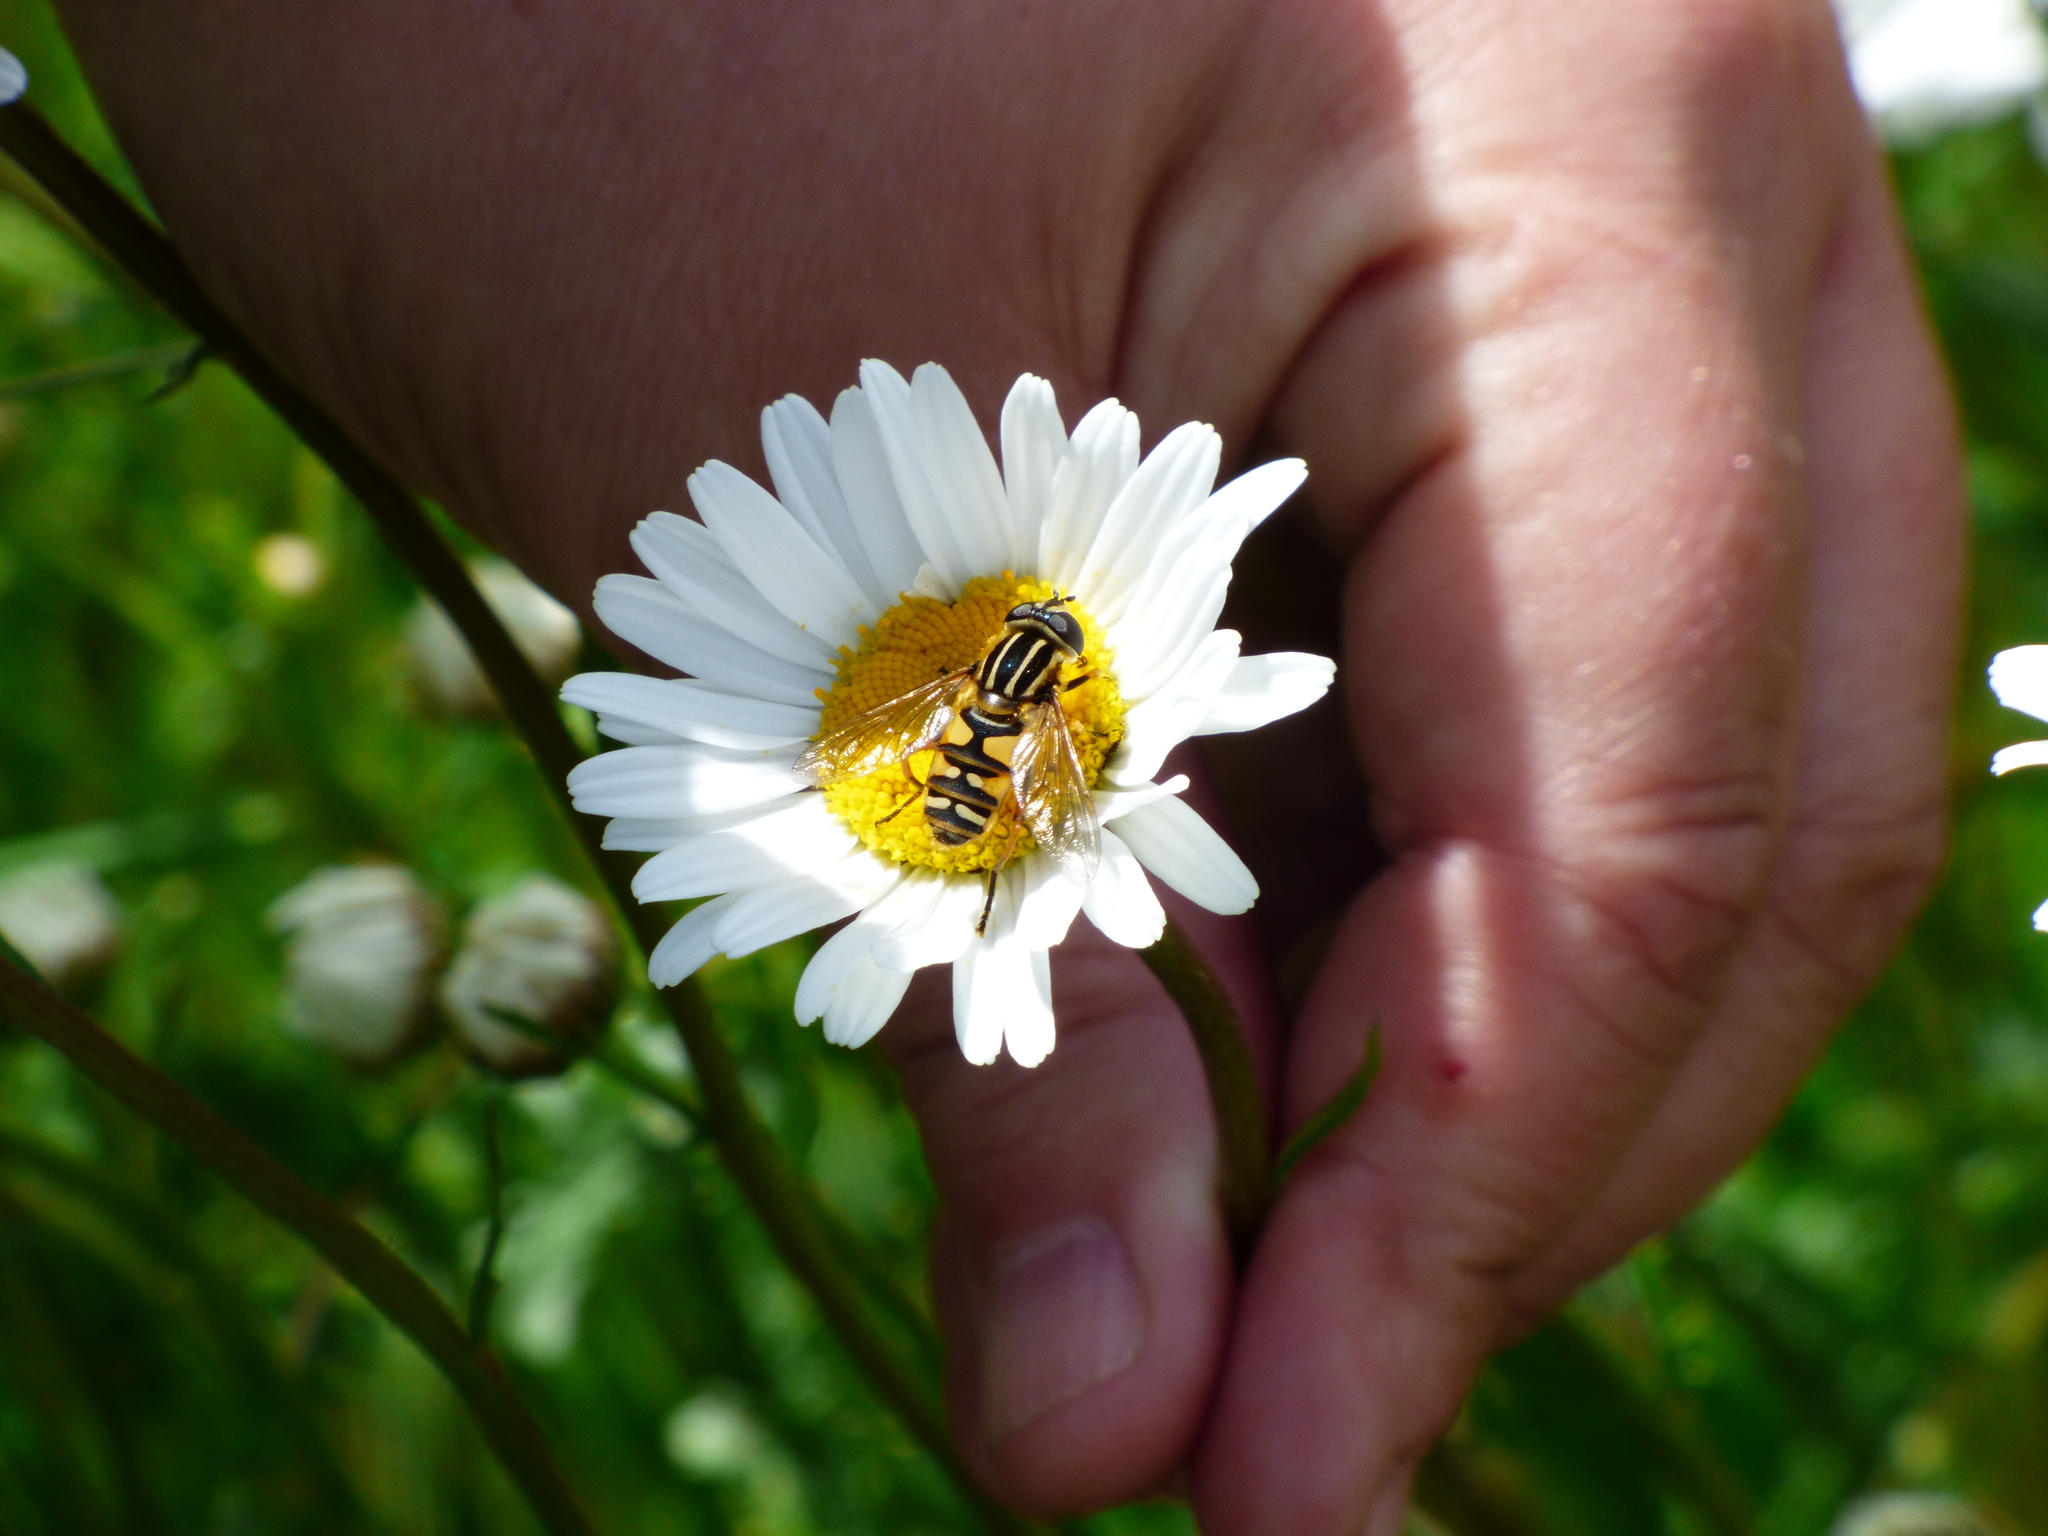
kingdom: Animalia
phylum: Arthropoda
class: Insecta
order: Diptera
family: Syrphidae
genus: Helophilus
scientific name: Helophilus pendulus
